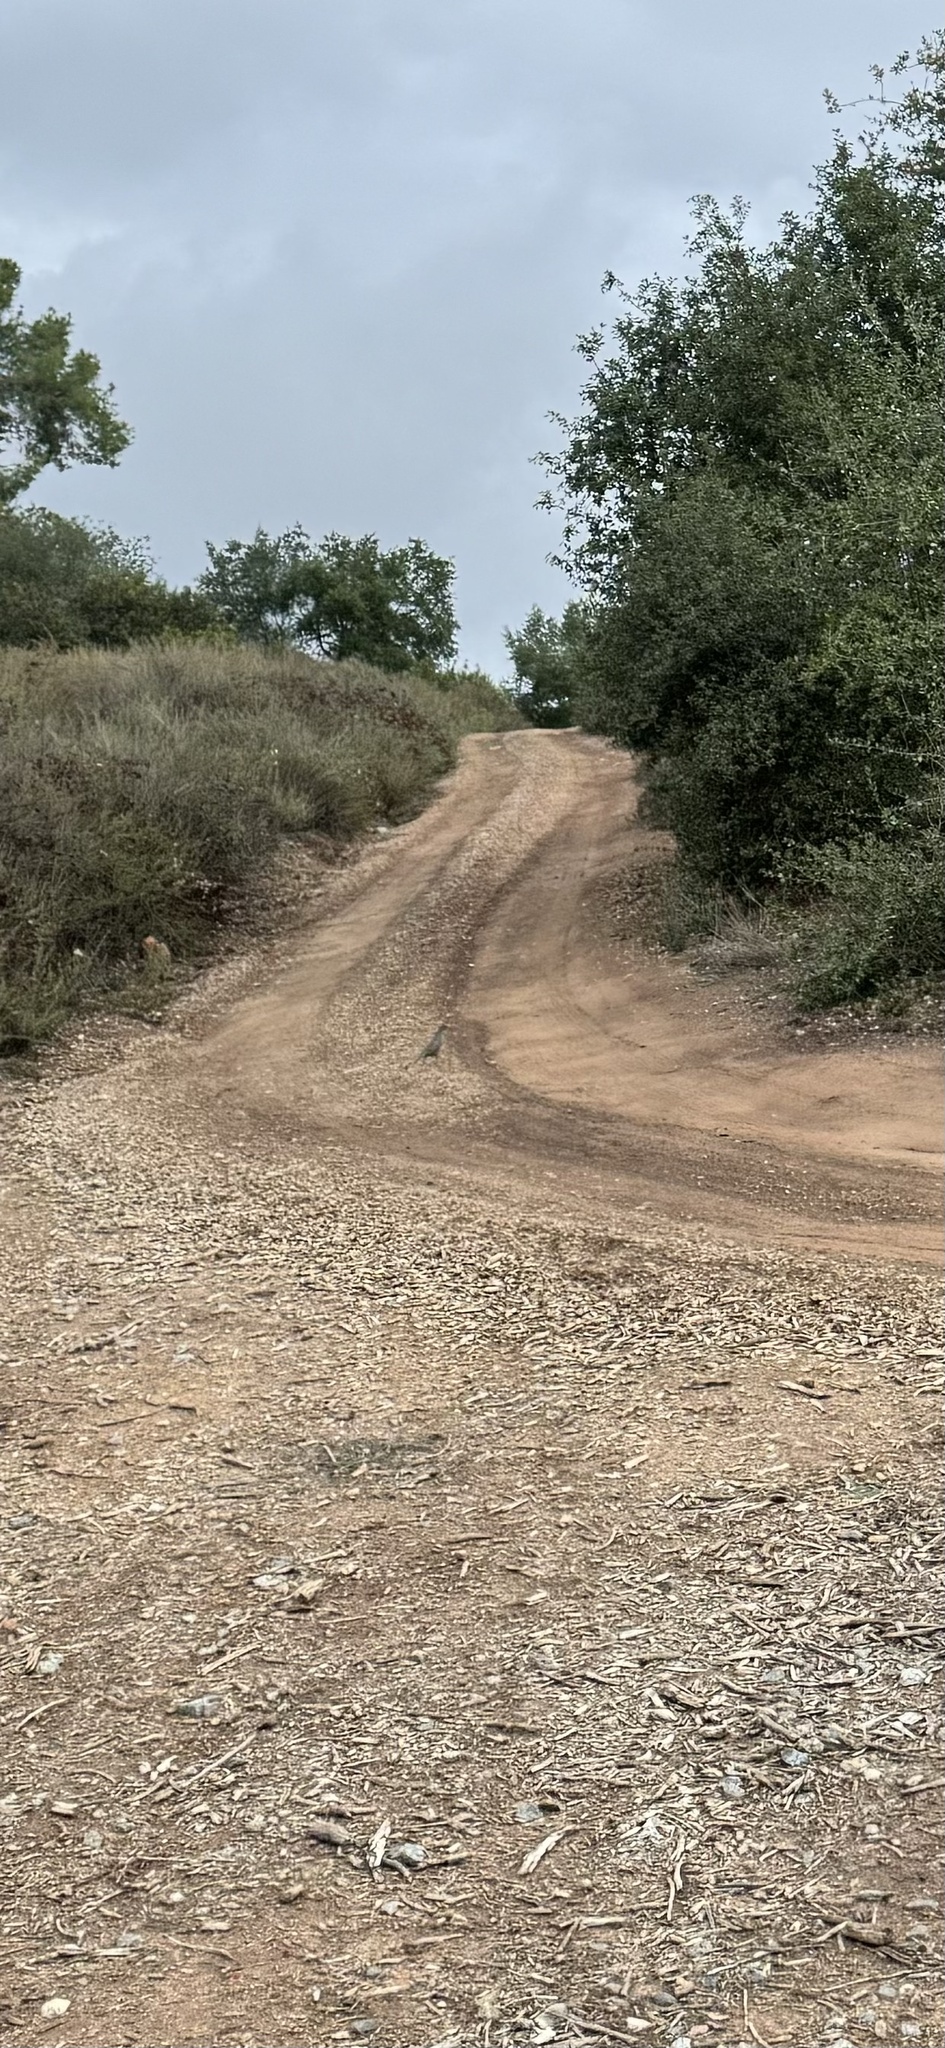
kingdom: Animalia
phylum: Chordata
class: Aves
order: Galliformes
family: Odontophoridae
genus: Callipepla
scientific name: Callipepla californica
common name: California quail
